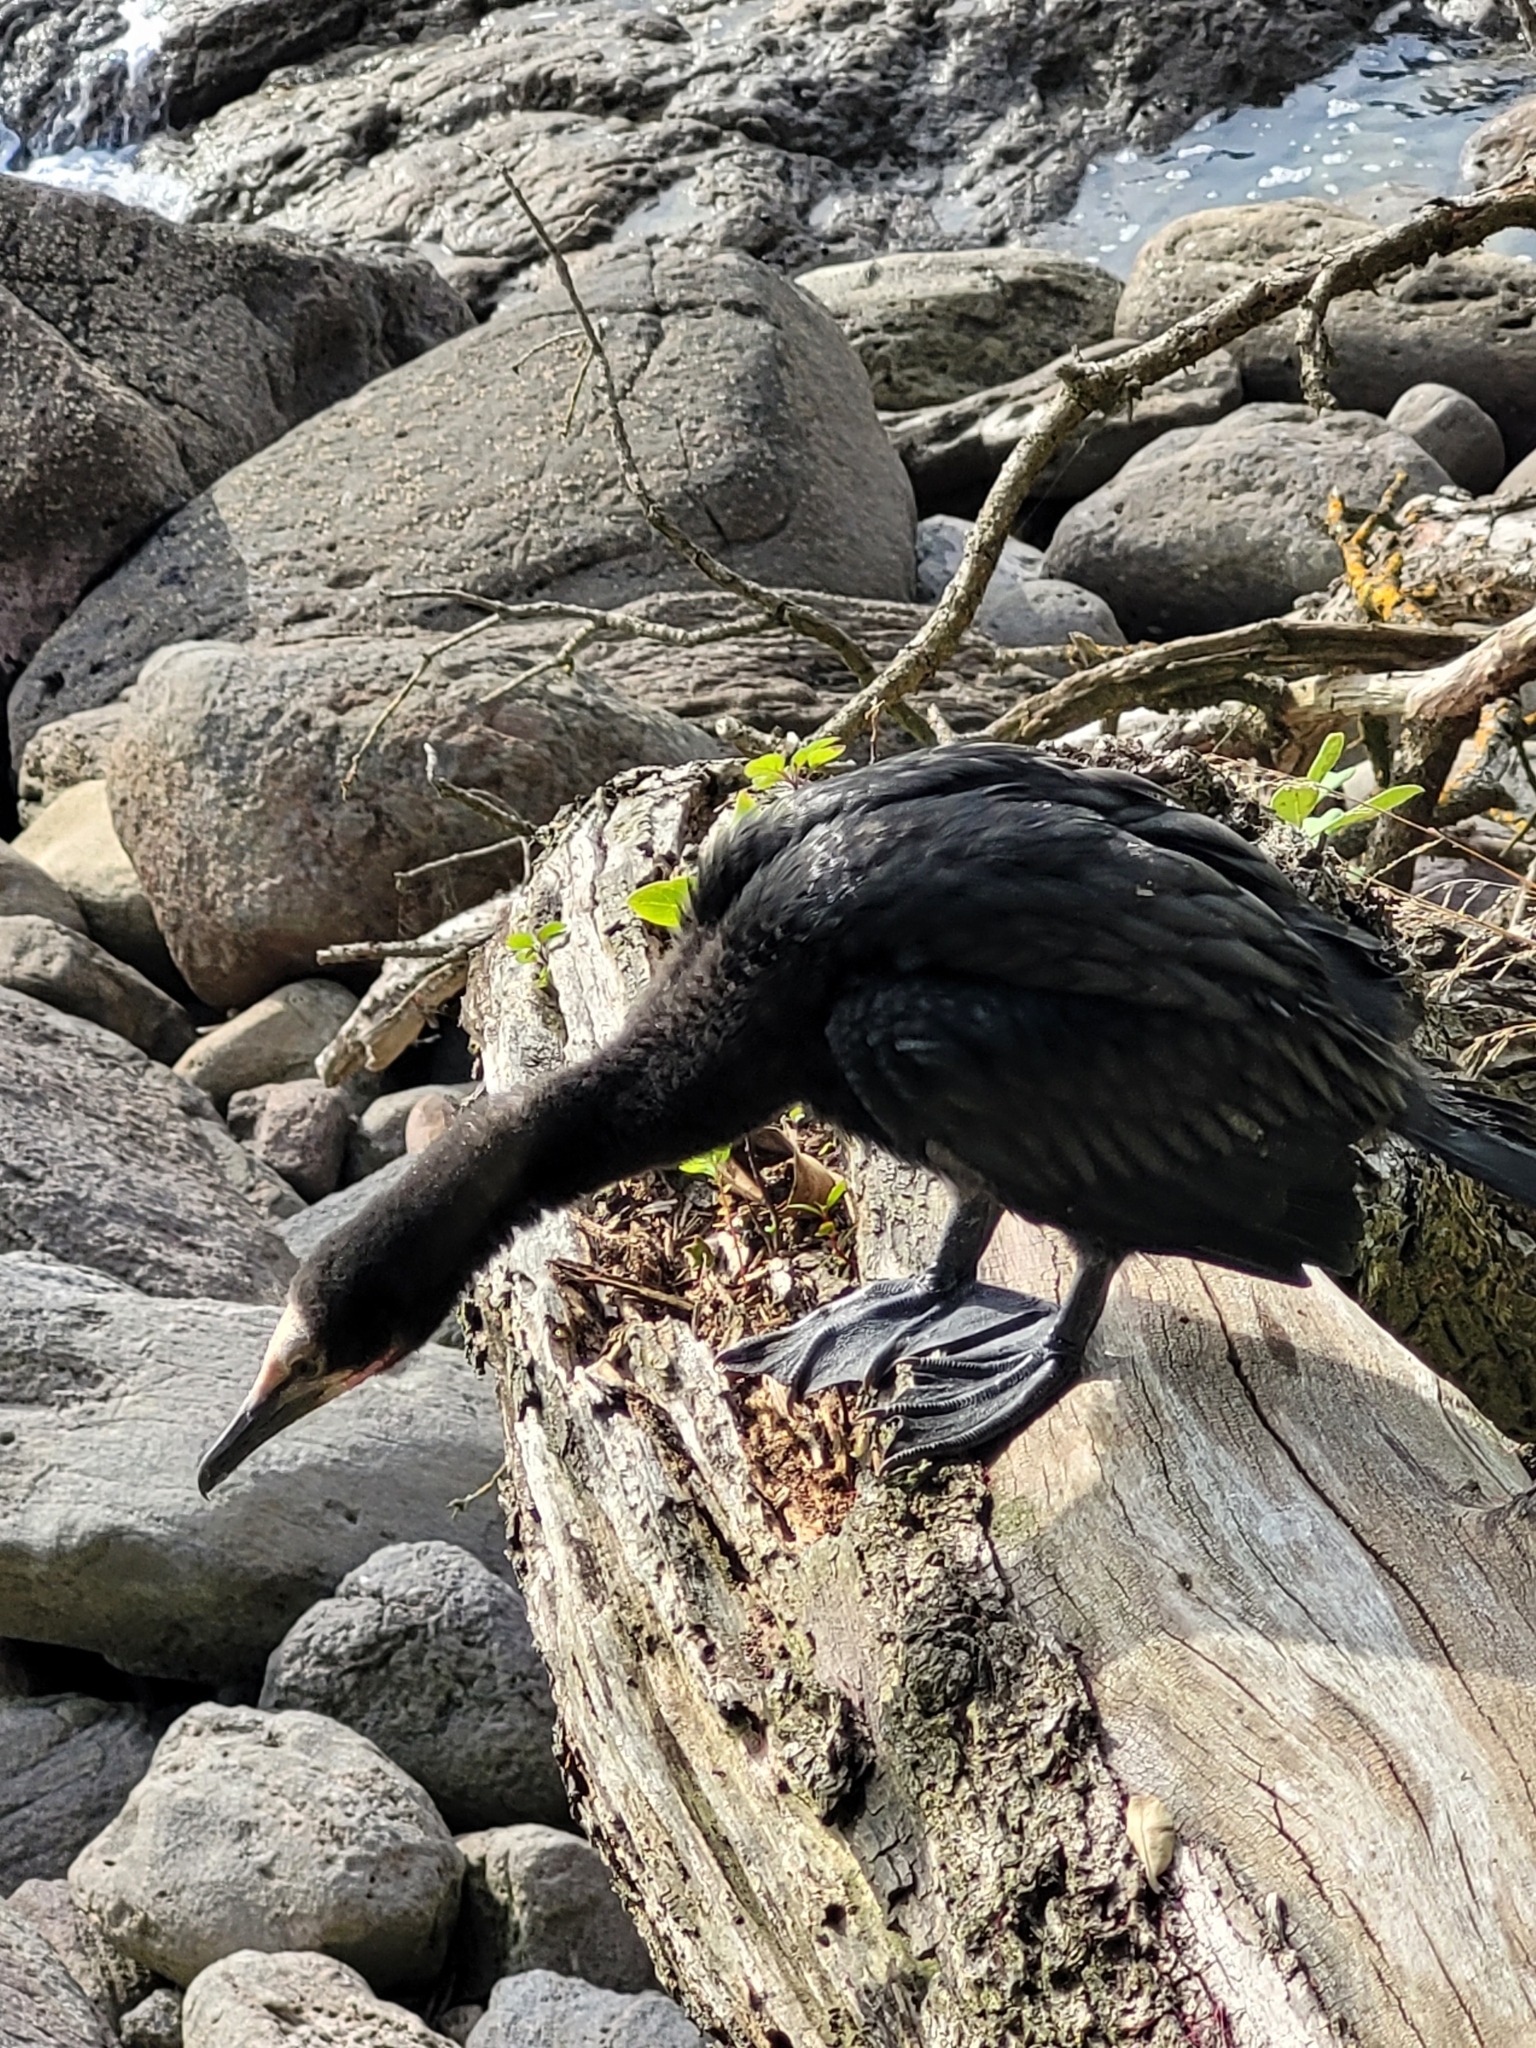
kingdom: Animalia
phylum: Chordata
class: Aves
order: Suliformes
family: Phalacrocoracidae
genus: Microcarbo
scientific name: Microcarbo melanoleucos
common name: Little pied cormorant
